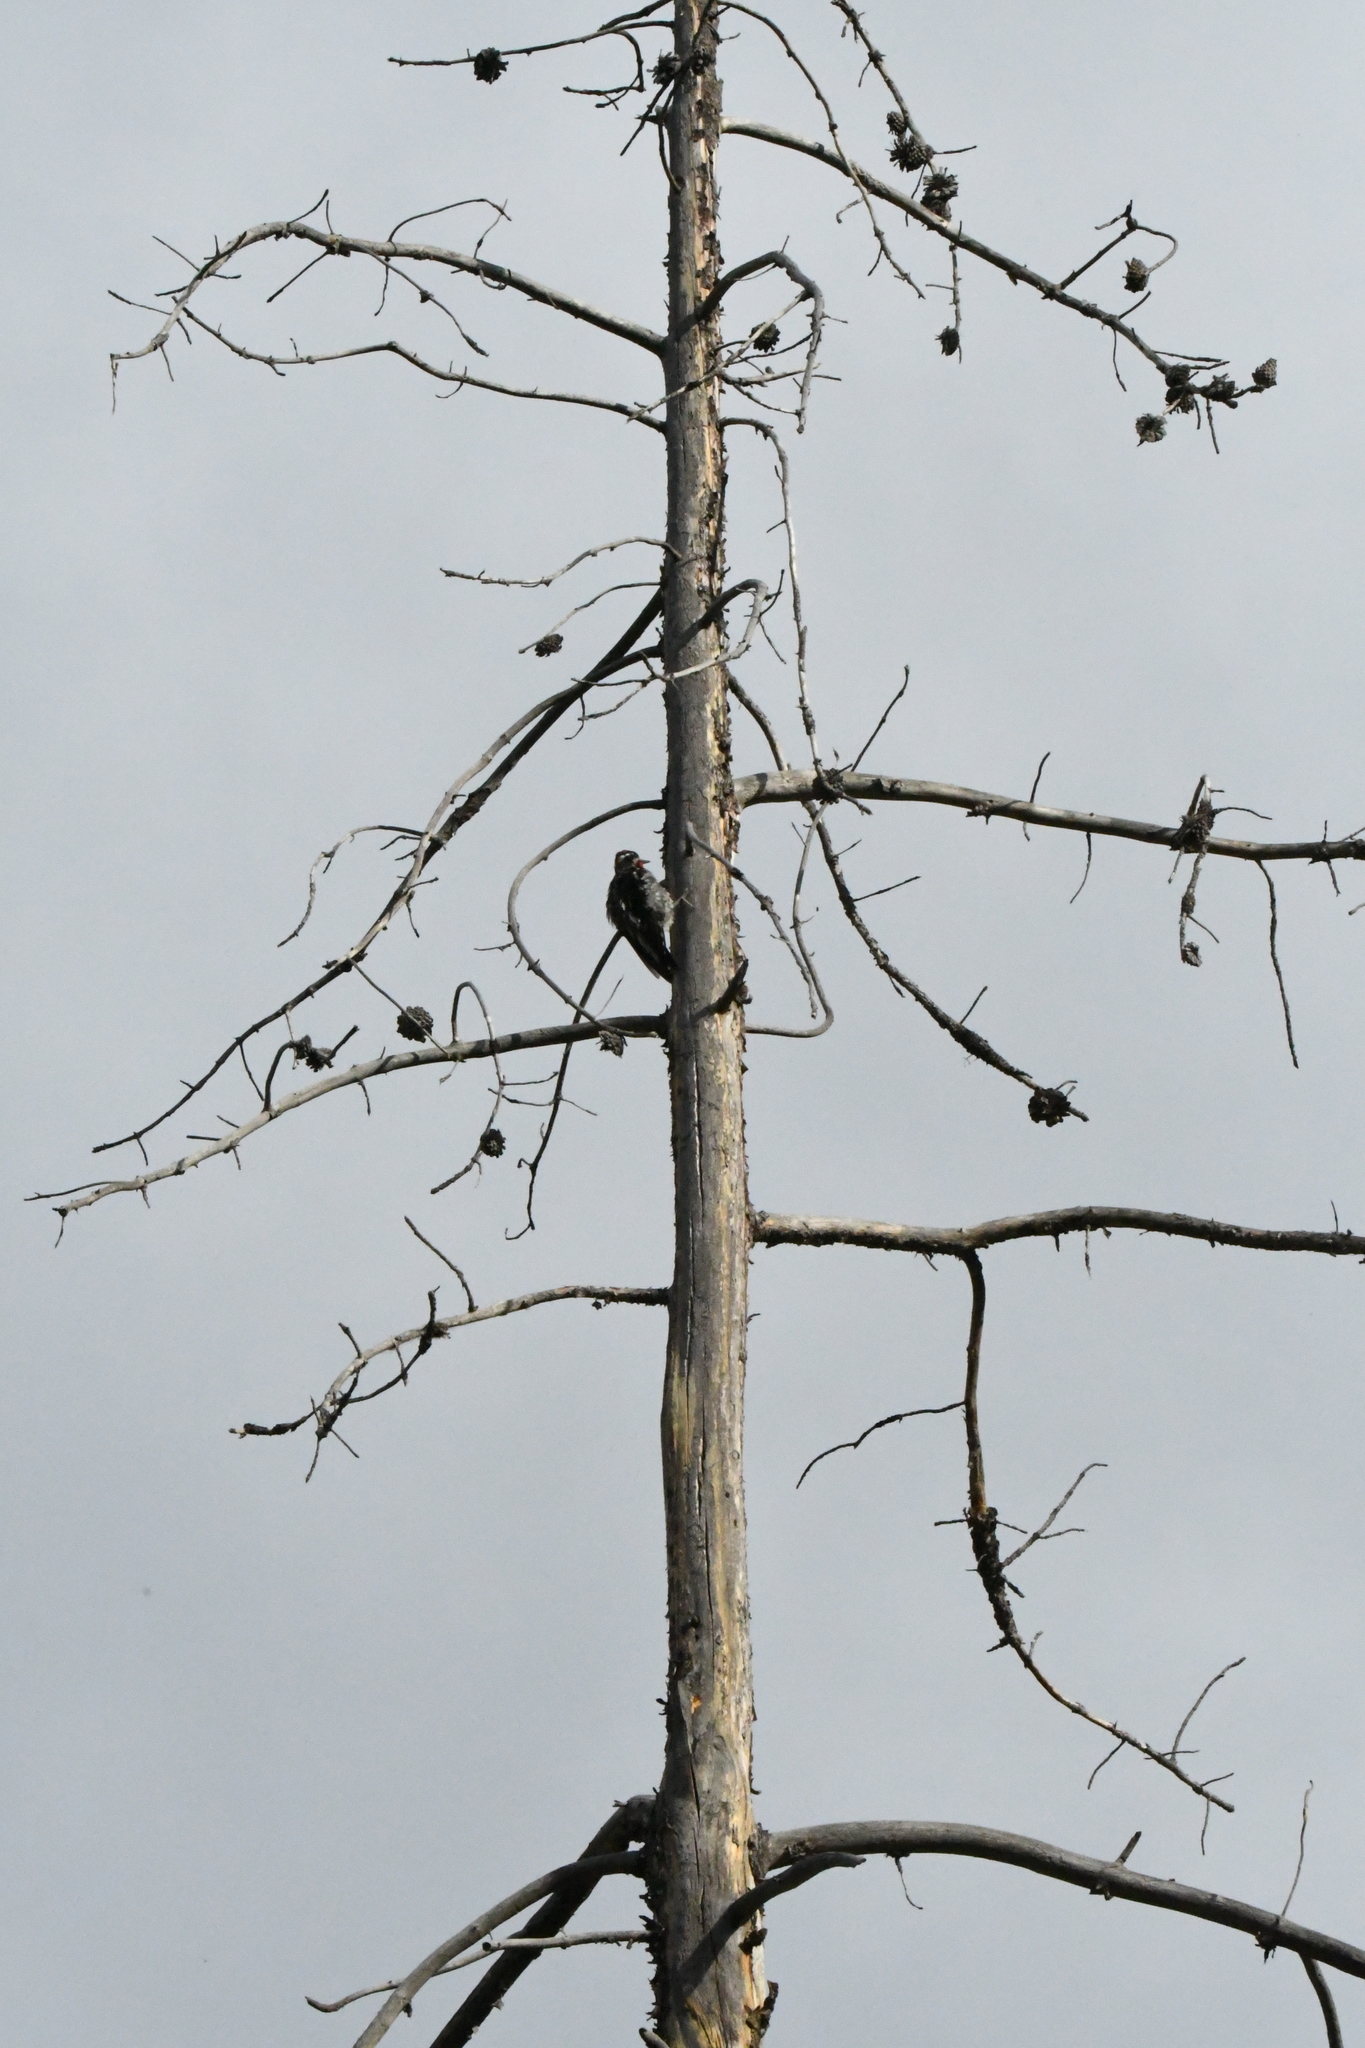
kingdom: Animalia
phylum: Chordata
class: Aves
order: Piciformes
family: Picidae
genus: Sphyrapicus
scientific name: Sphyrapicus nuchalis
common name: Red-naped sapsucker
